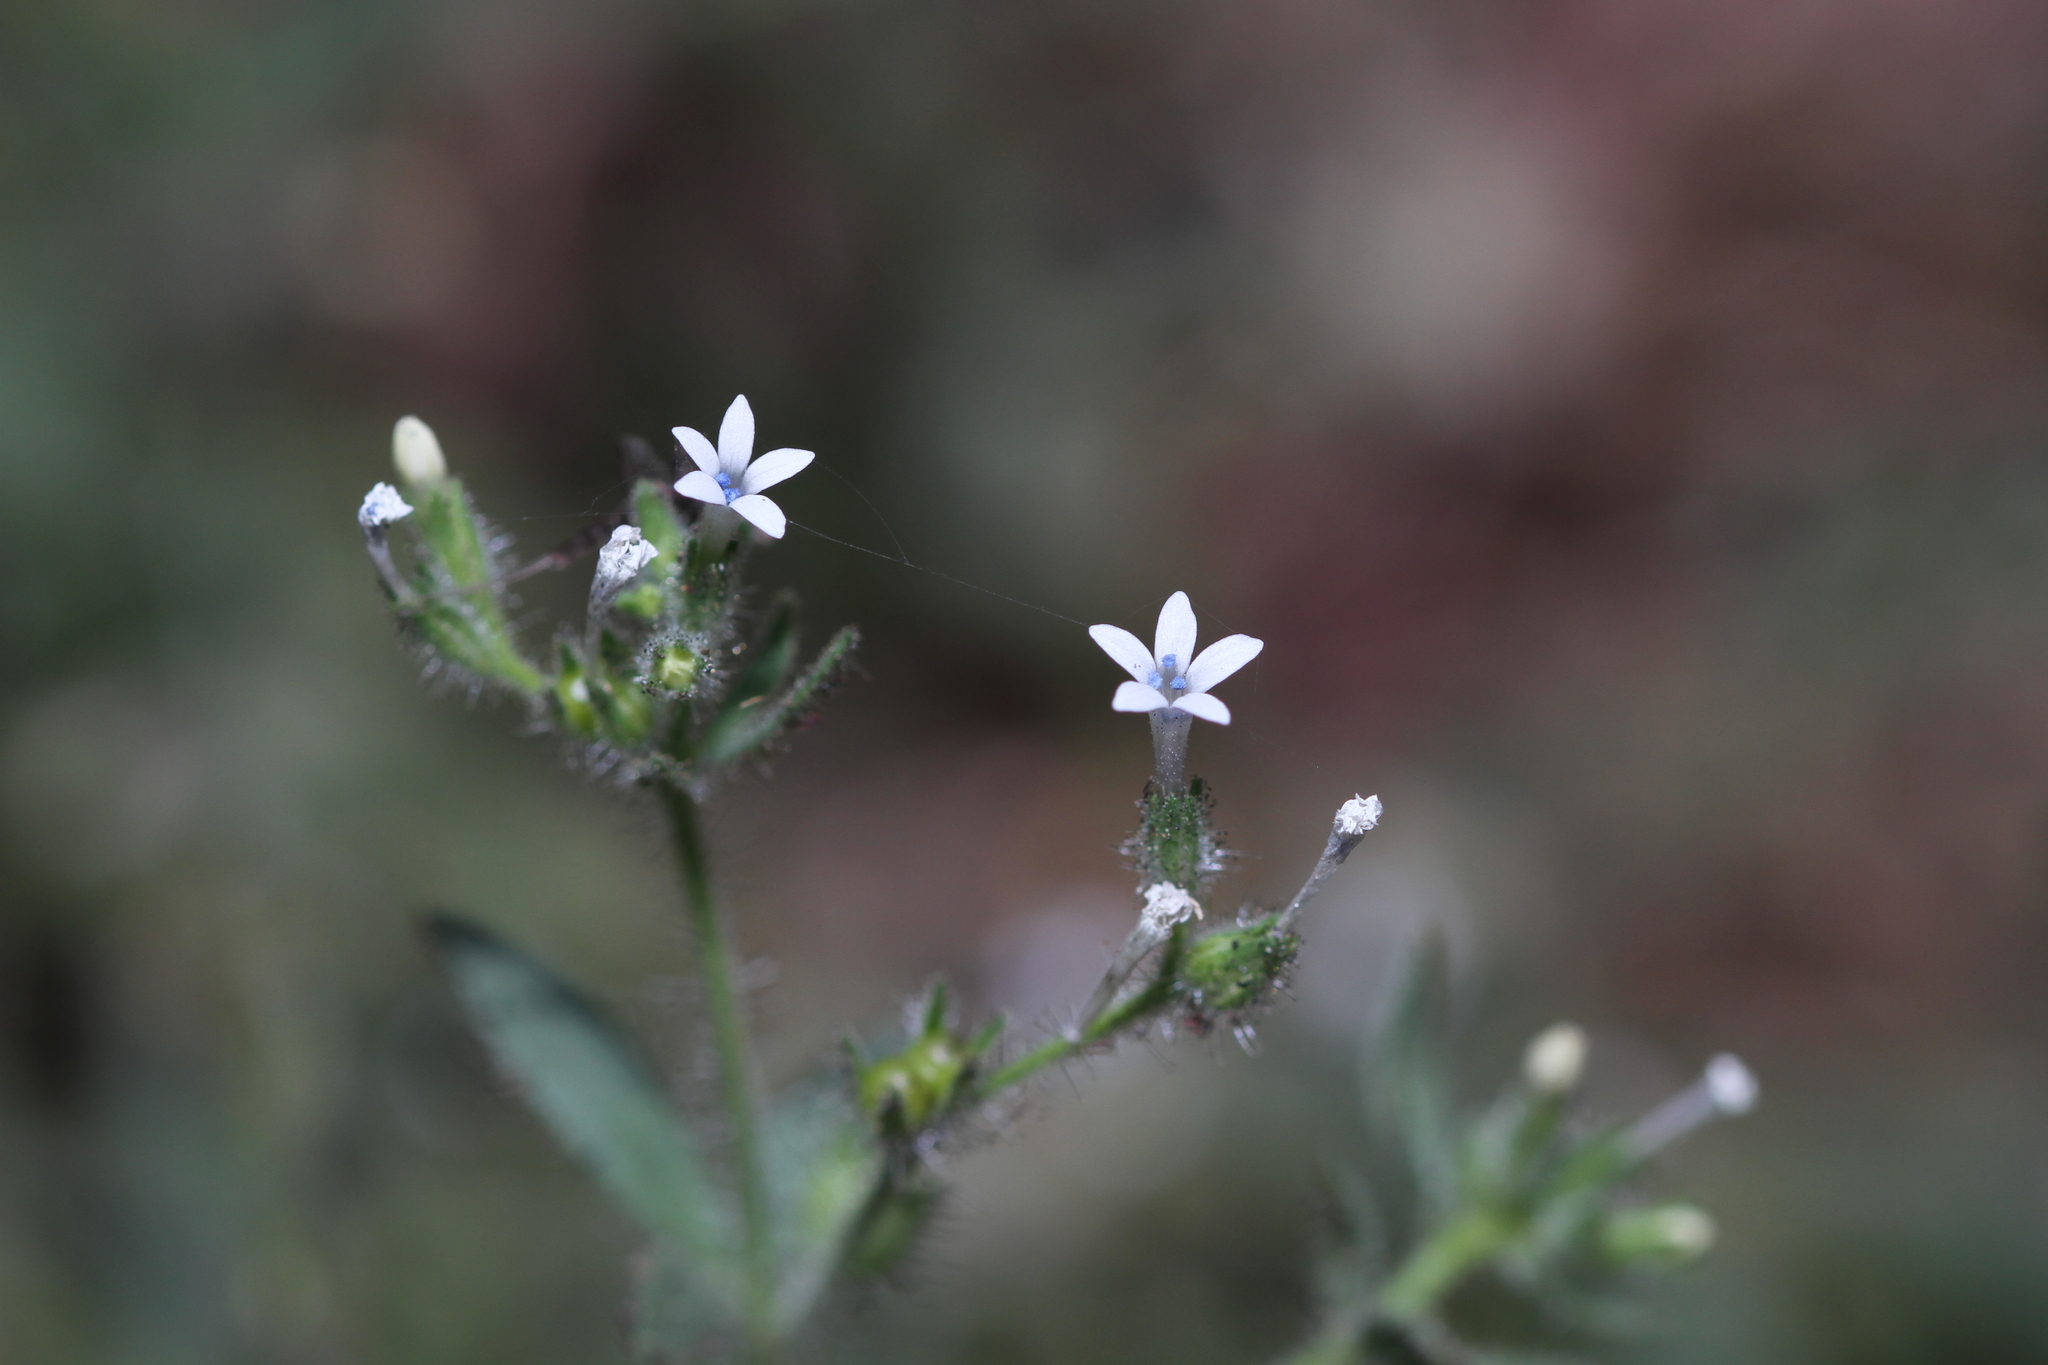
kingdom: Plantae
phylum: Tracheophyta
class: Magnoliopsida
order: Ericales
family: Polemoniaceae
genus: Allophyllum
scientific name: Allophyllum integrifolium
